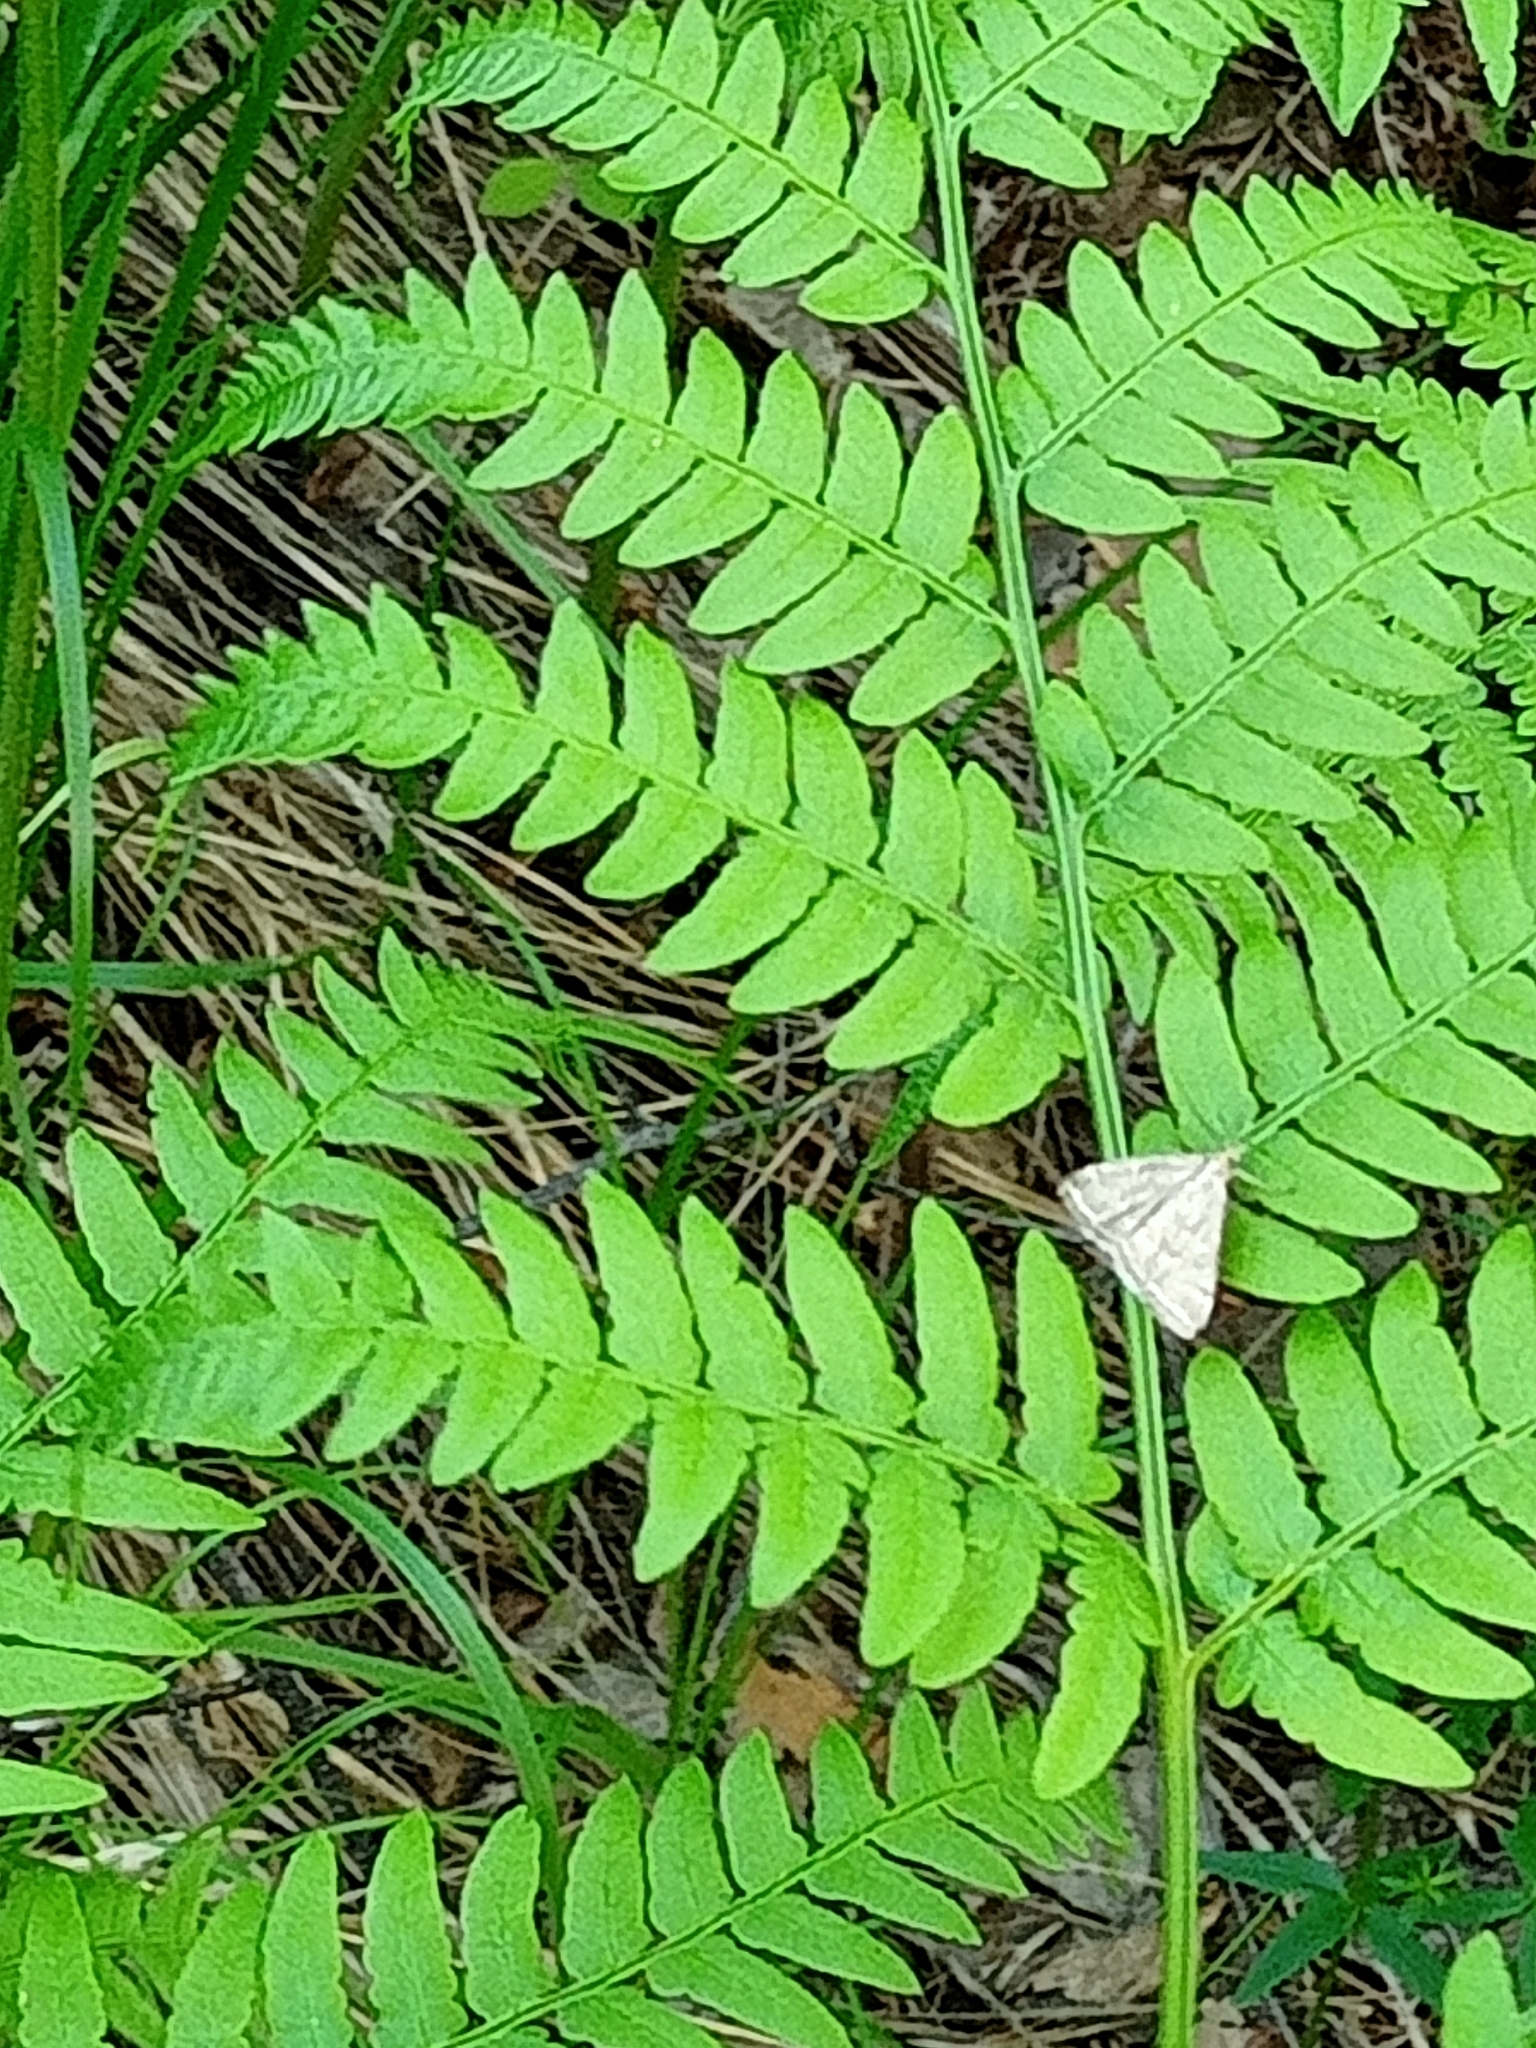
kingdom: Plantae
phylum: Tracheophyta
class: Polypodiopsida
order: Polypodiales
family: Dennstaedtiaceae
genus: Pteridium
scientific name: Pteridium aquilinum
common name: Bracken
